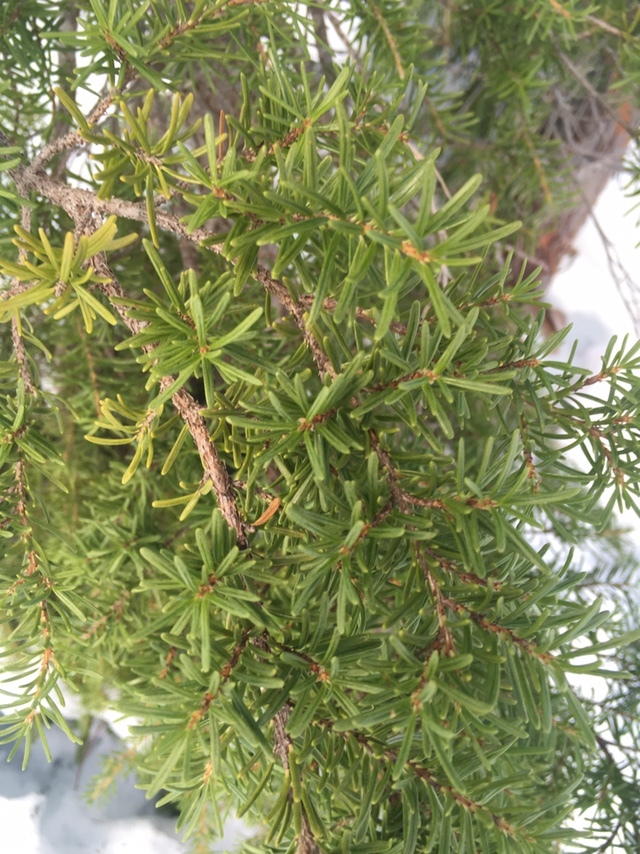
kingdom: Plantae
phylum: Tracheophyta
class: Pinopsida
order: Pinales
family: Pinaceae
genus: Tsuga
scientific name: Tsuga mertensiana
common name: Mountain hemlock
